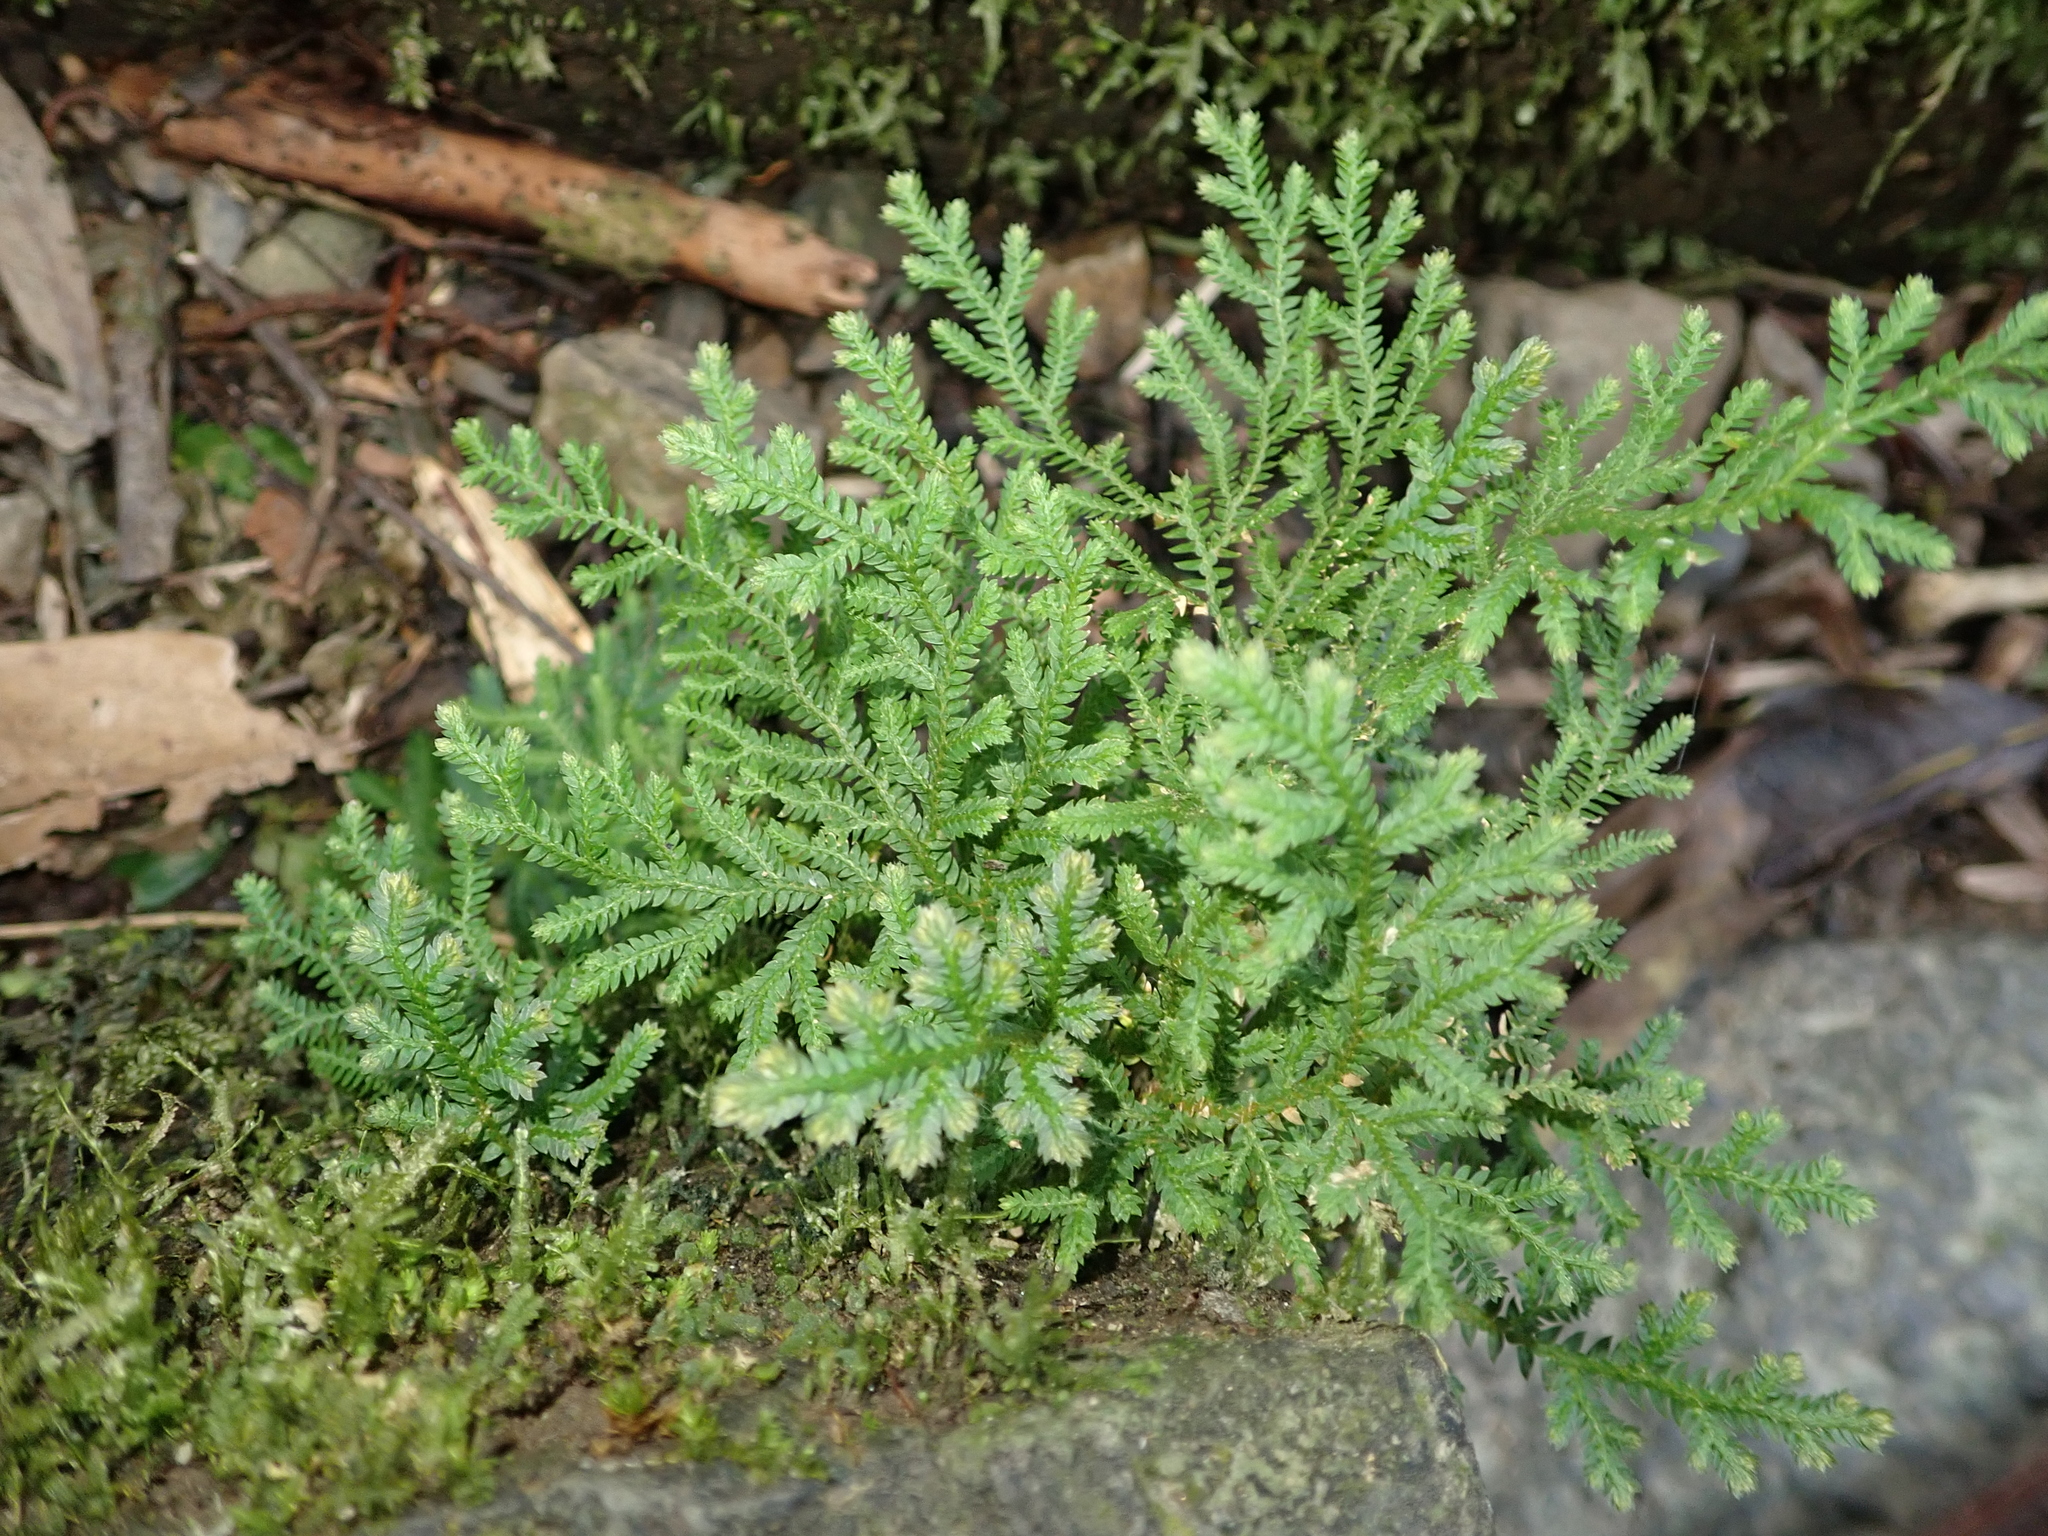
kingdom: Plantae
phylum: Tracheophyta
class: Lycopodiopsida
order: Selaginellales
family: Selaginellaceae
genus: Selaginella
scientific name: Selaginella moellendorffii
